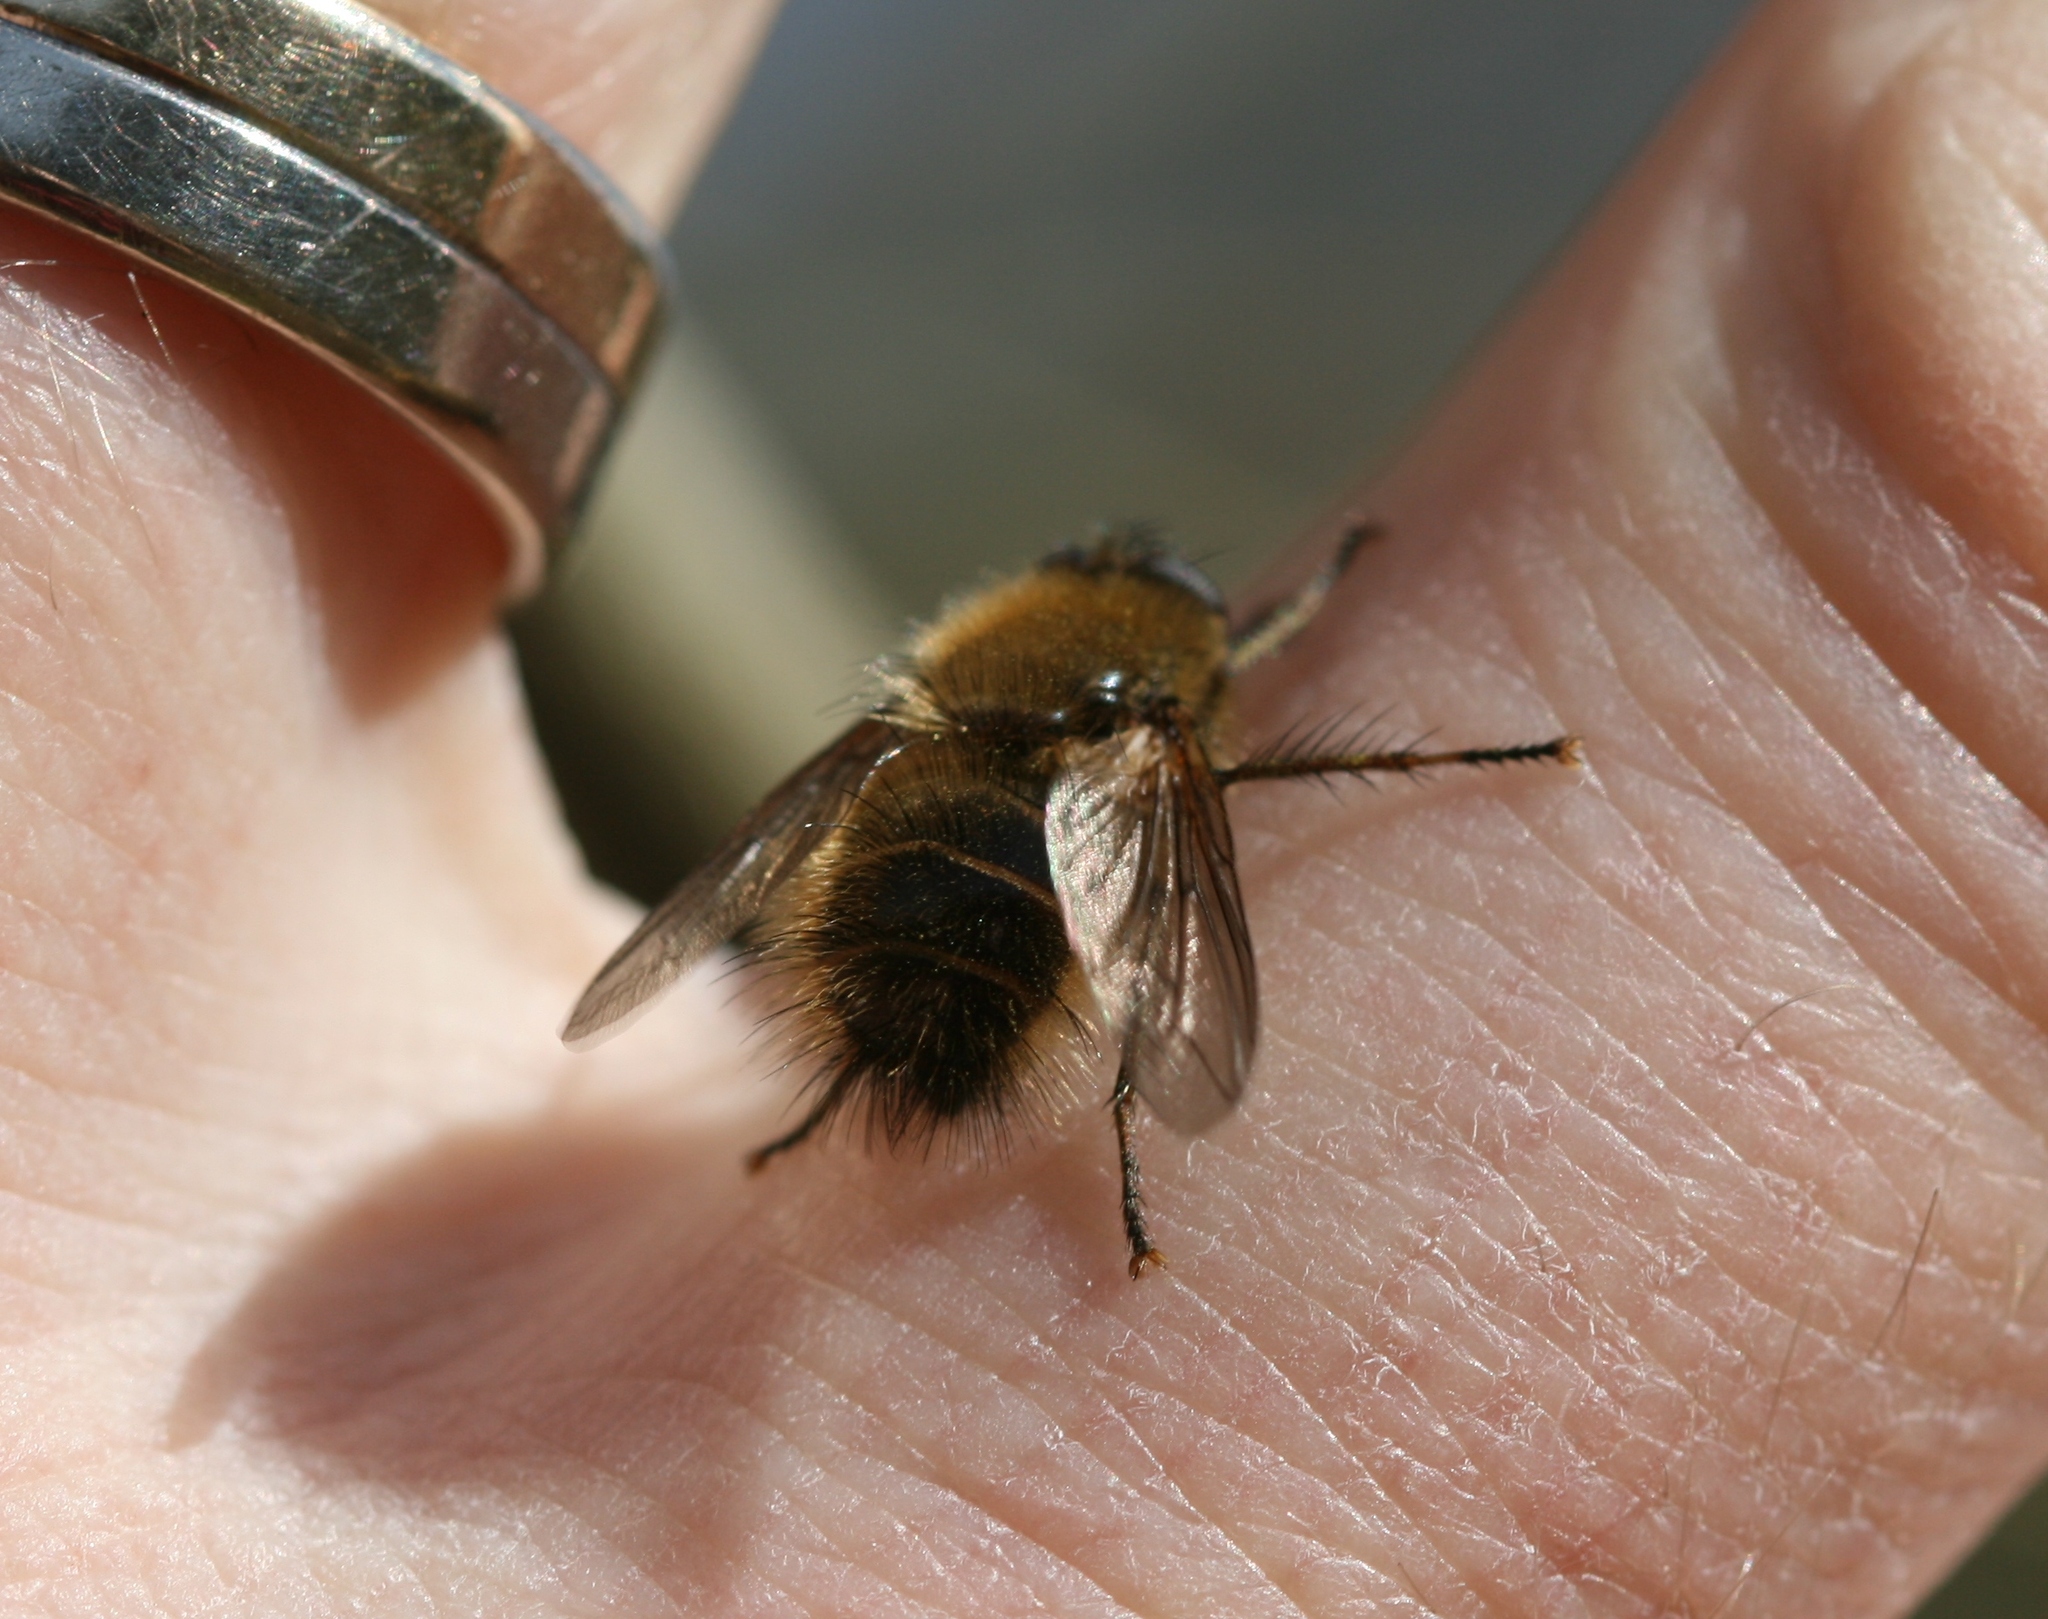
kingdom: Animalia
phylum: Arthropoda
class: Insecta
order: Diptera
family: Tachinidae
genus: Tachina
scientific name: Tachina ursina
